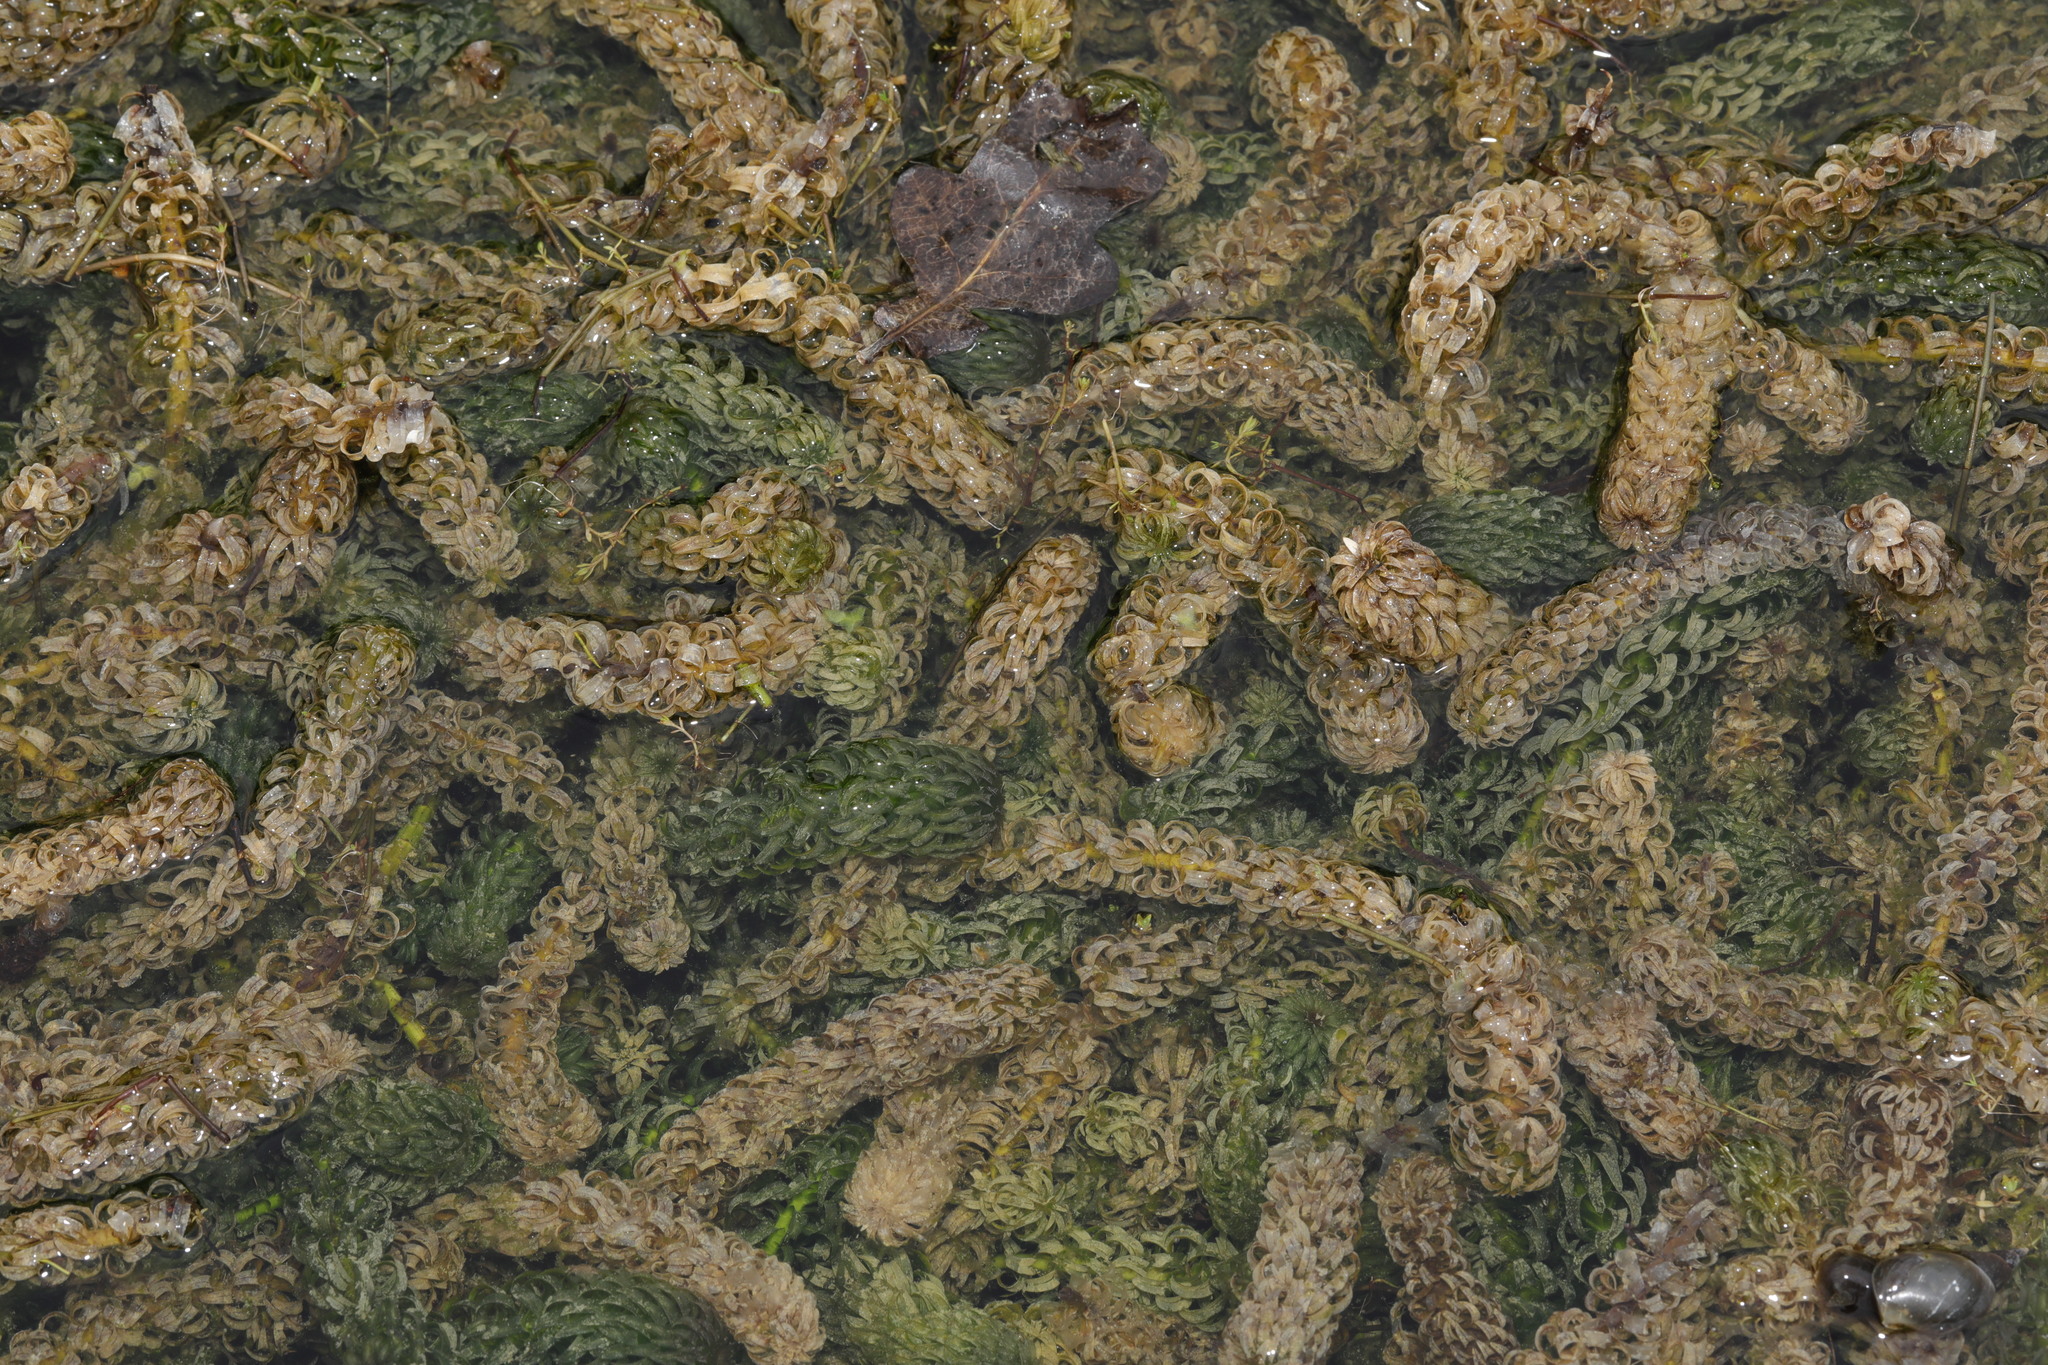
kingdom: Plantae
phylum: Tracheophyta
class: Liliopsida
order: Alismatales
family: Hydrocharitaceae
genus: Lagarosiphon
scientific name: Lagarosiphon major
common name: Curly waterweed
